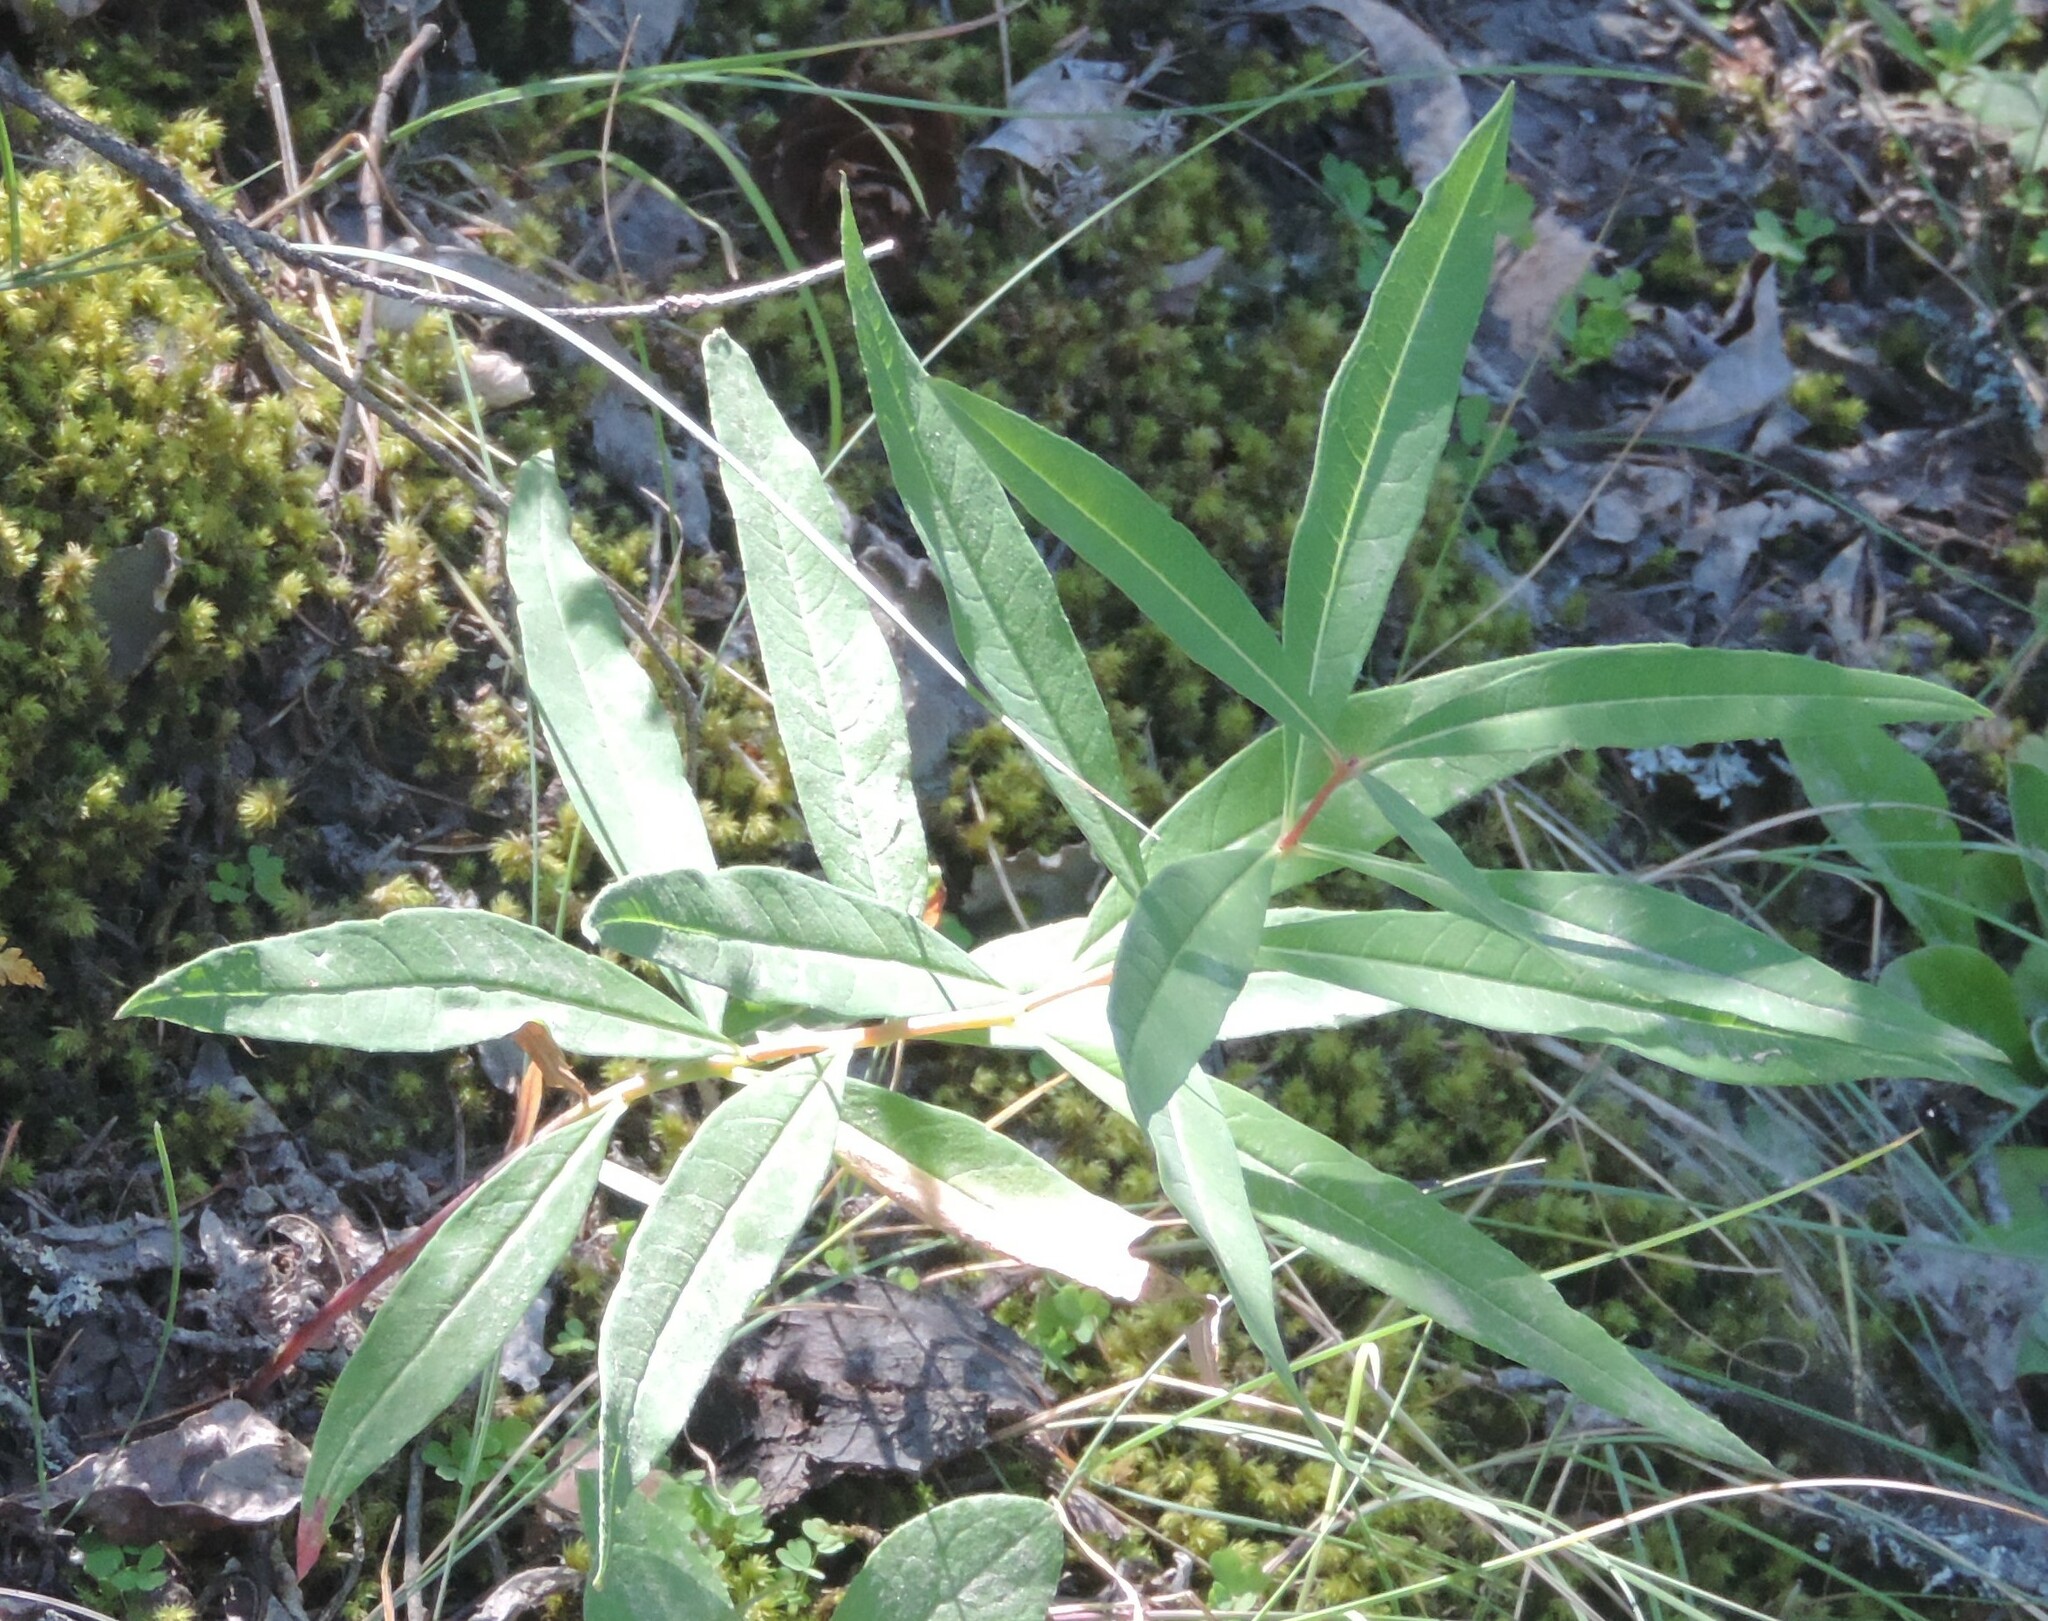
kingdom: Plantae
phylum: Tracheophyta
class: Magnoliopsida
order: Myrtales
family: Onagraceae
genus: Chamaenerion
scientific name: Chamaenerion angustifolium
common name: Fireweed
